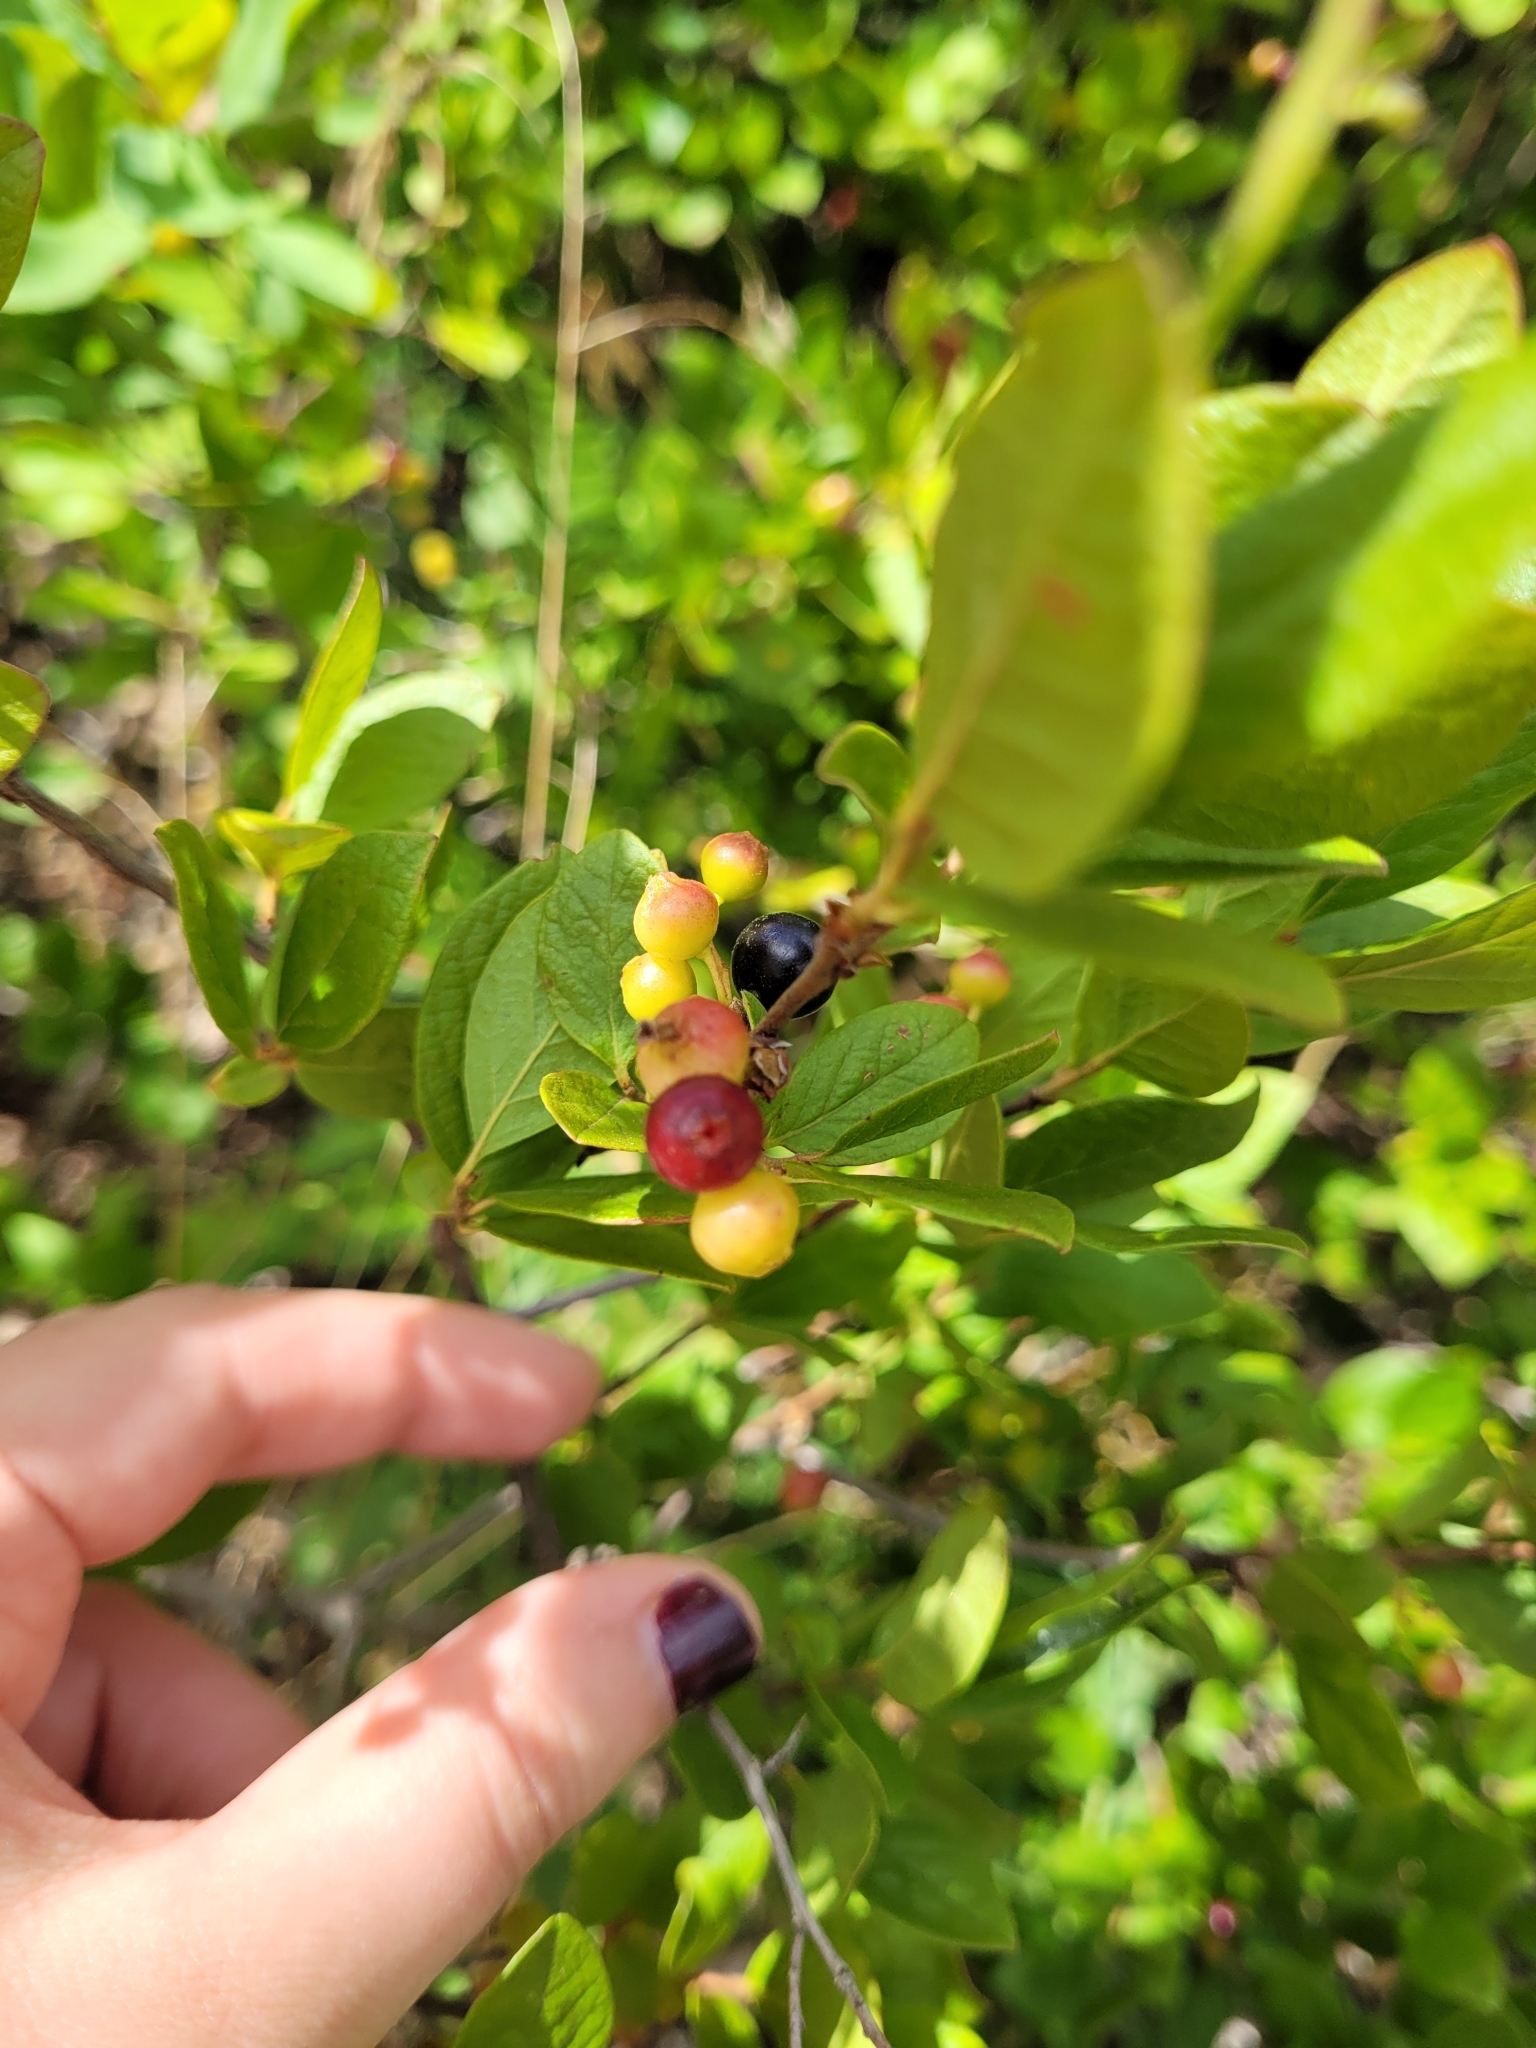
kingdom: Plantae
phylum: Tracheophyta
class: Magnoliopsida
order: Ericales
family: Ericaceae
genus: Gaylussacia
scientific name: Gaylussacia baccata
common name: Black huckleberry
